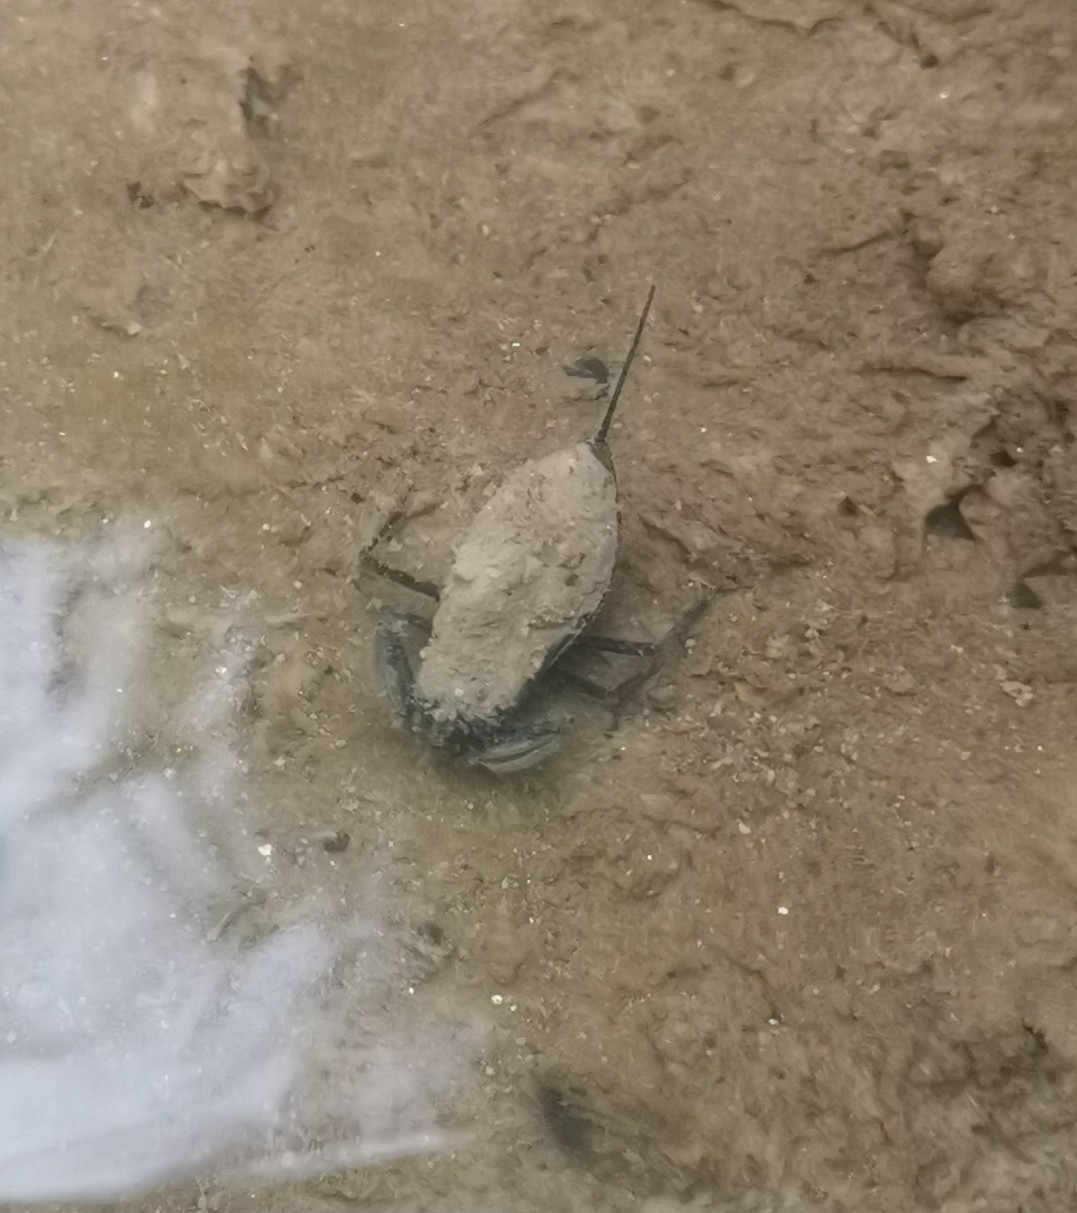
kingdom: Animalia
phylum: Arthropoda
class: Insecta
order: Hemiptera
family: Nepidae
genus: Nepa
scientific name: Nepa cinerea
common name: Water scorpion
